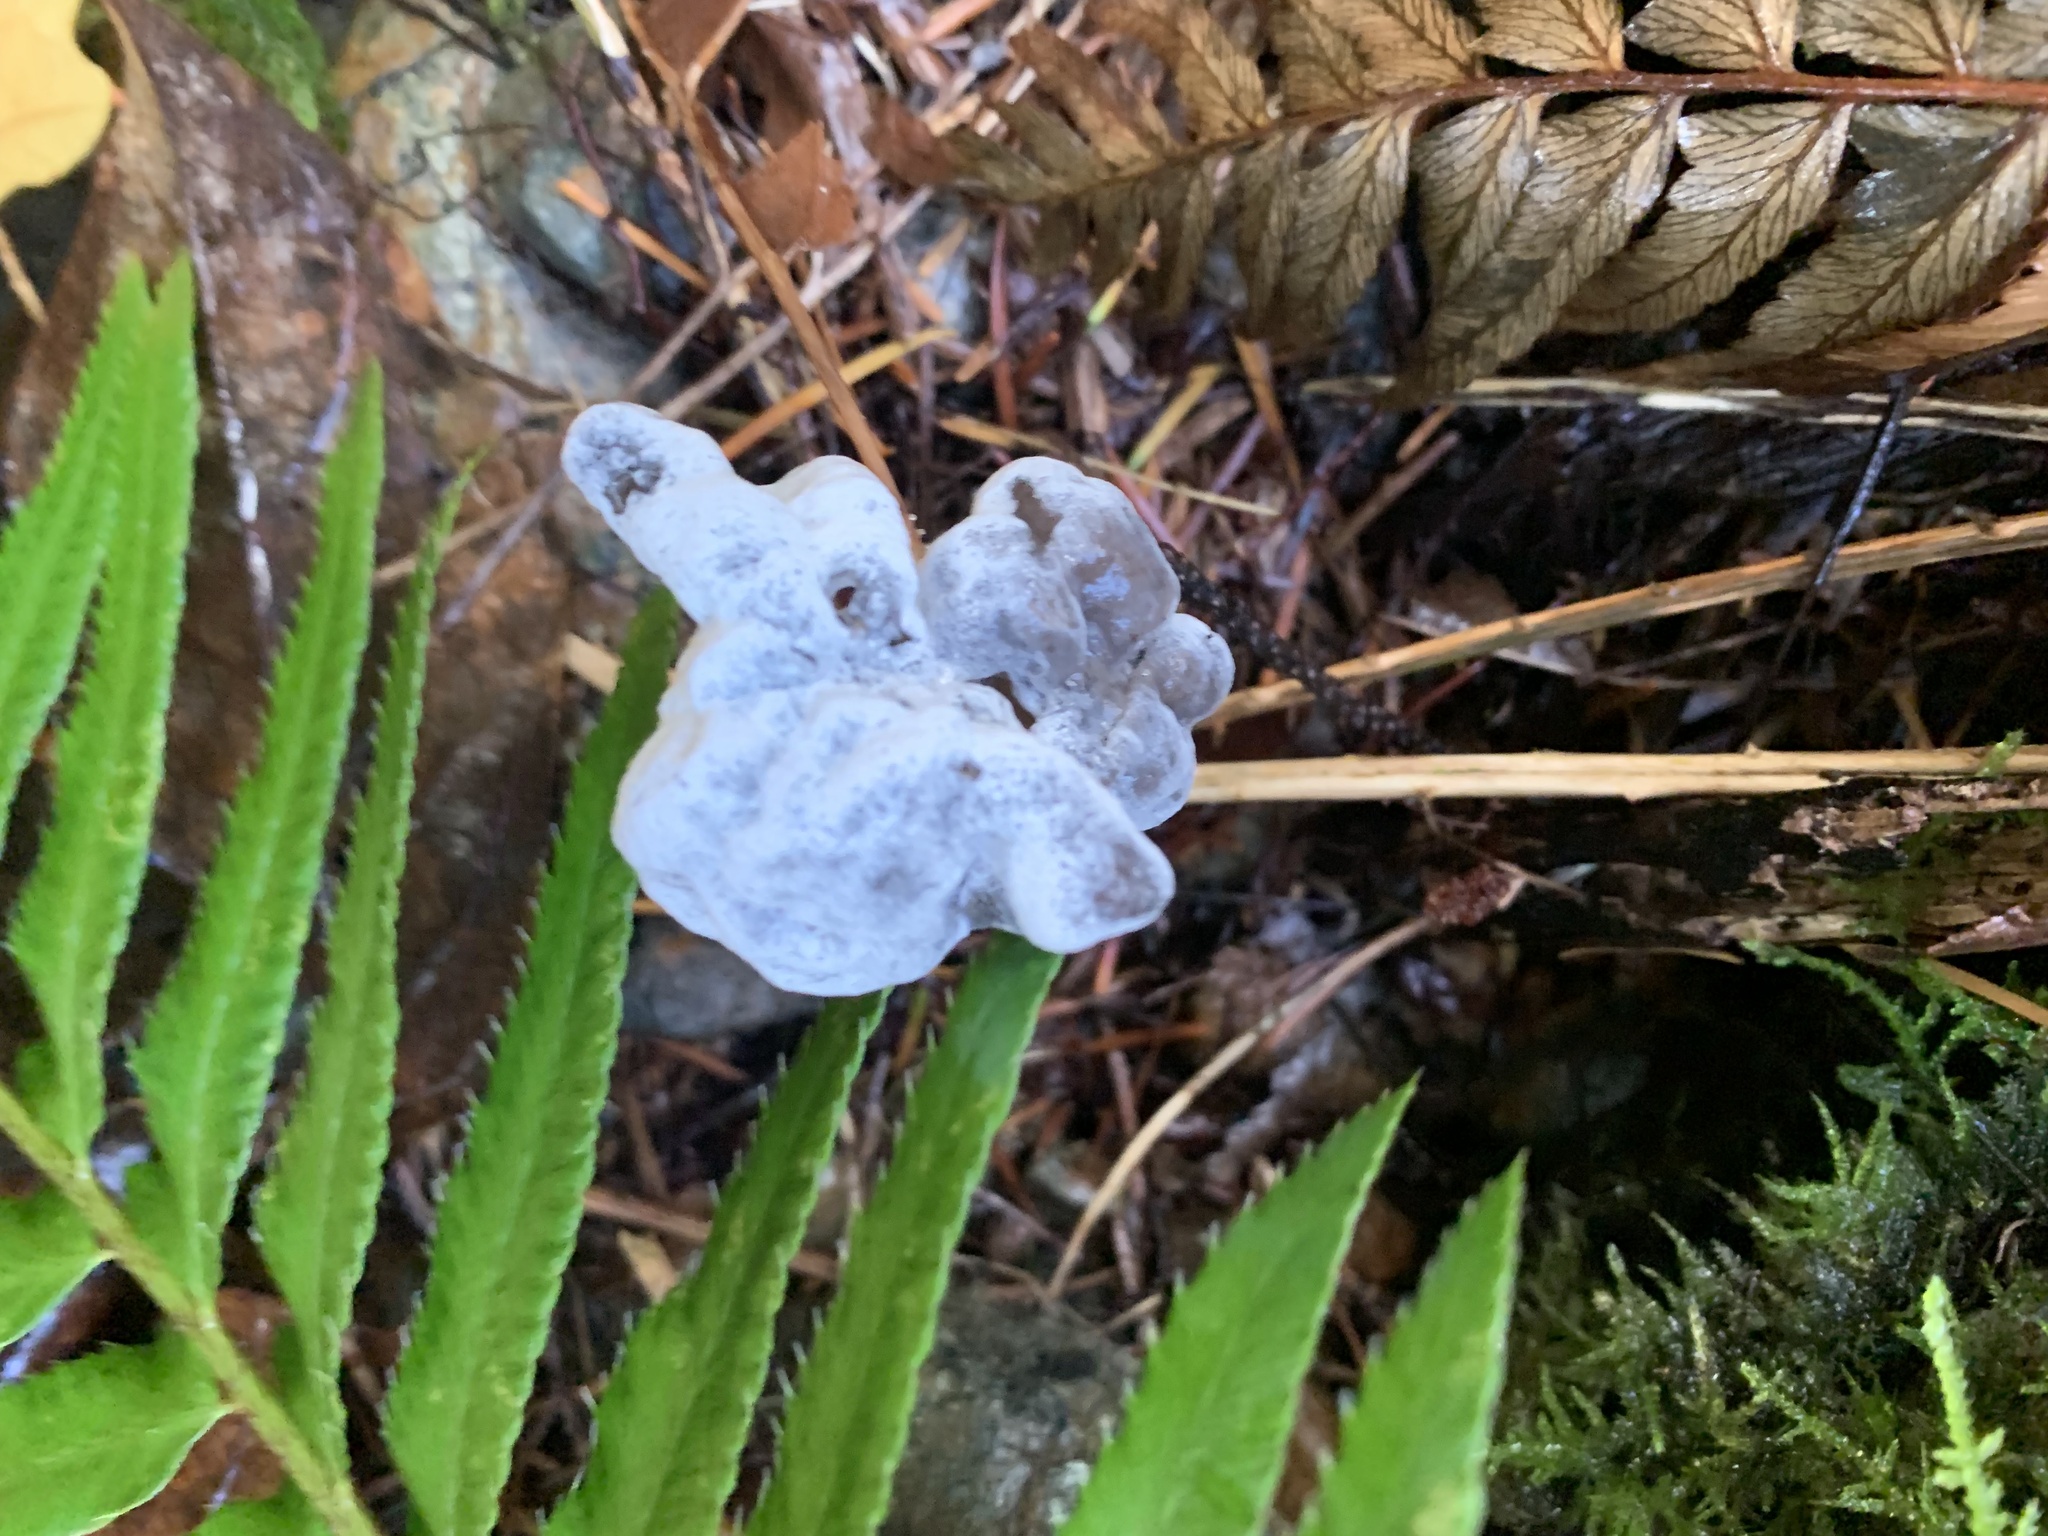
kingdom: Fungi
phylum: Ascomycota
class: Pezizomycetes
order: Pezizales
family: Helvellaceae
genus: Helvella
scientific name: Helvella vespertina
